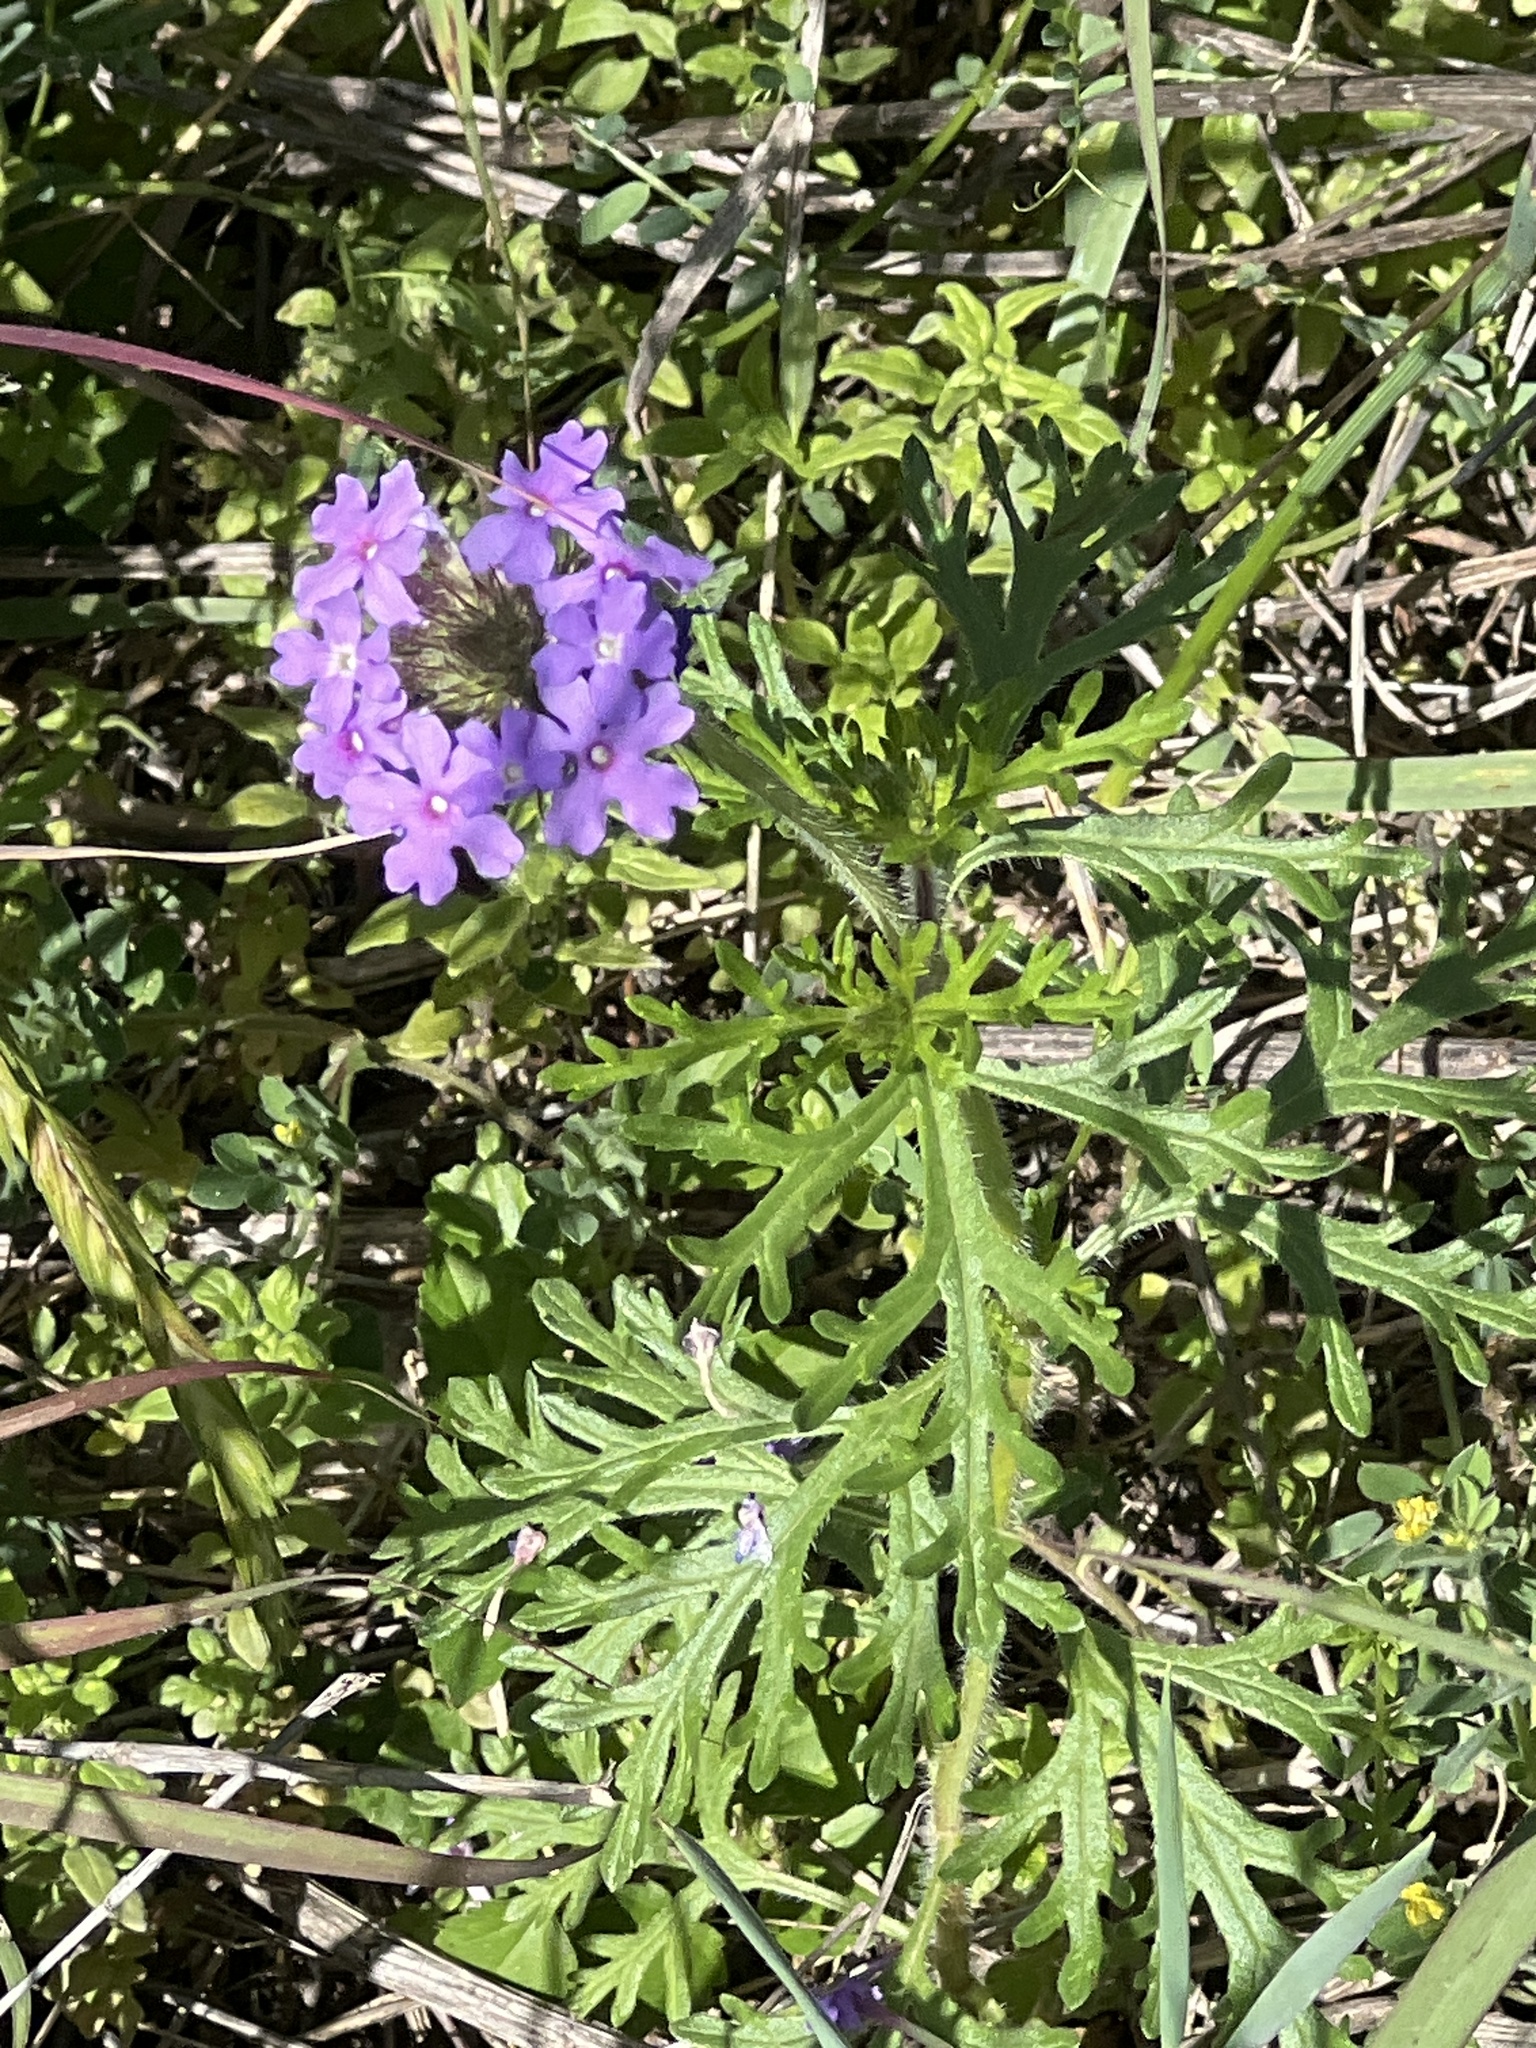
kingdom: Plantae
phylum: Tracheophyta
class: Magnoliopsida
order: Lamiales
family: Verbenaceae
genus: Verbena
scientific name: Verbena bipinnatifida
